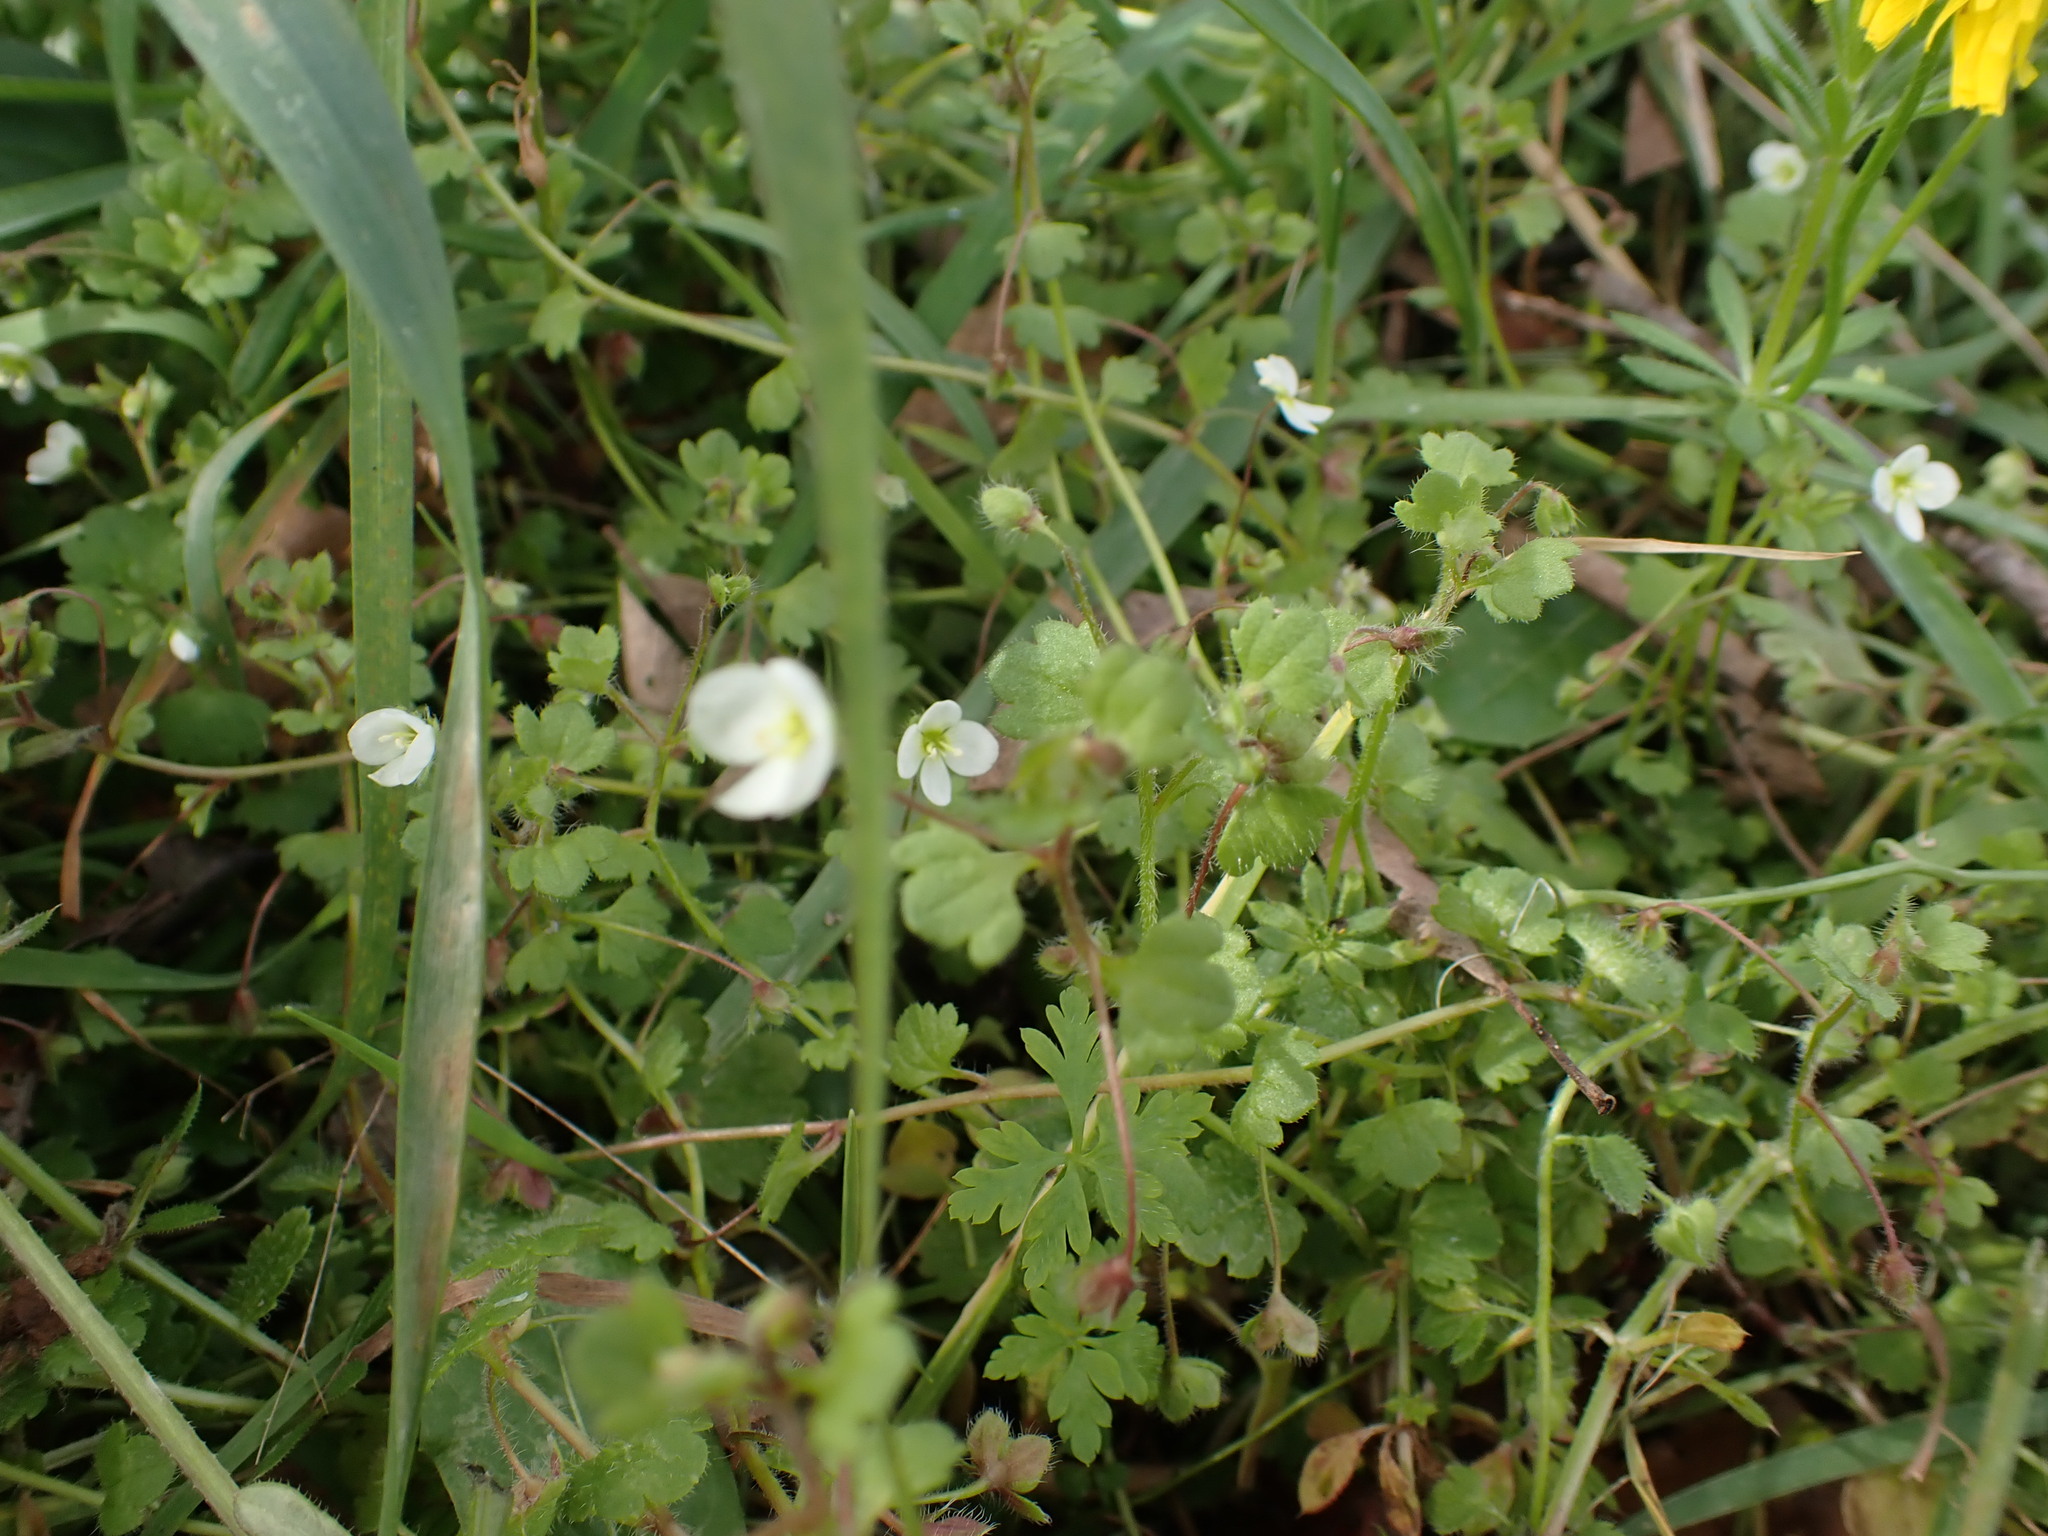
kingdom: Plantae
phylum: Tracheophyta
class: Magnoliopsida
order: Lamiales
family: Plantaginaceae
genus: Veronica
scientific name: Veronica cymbalaria
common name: Pale speedwell
